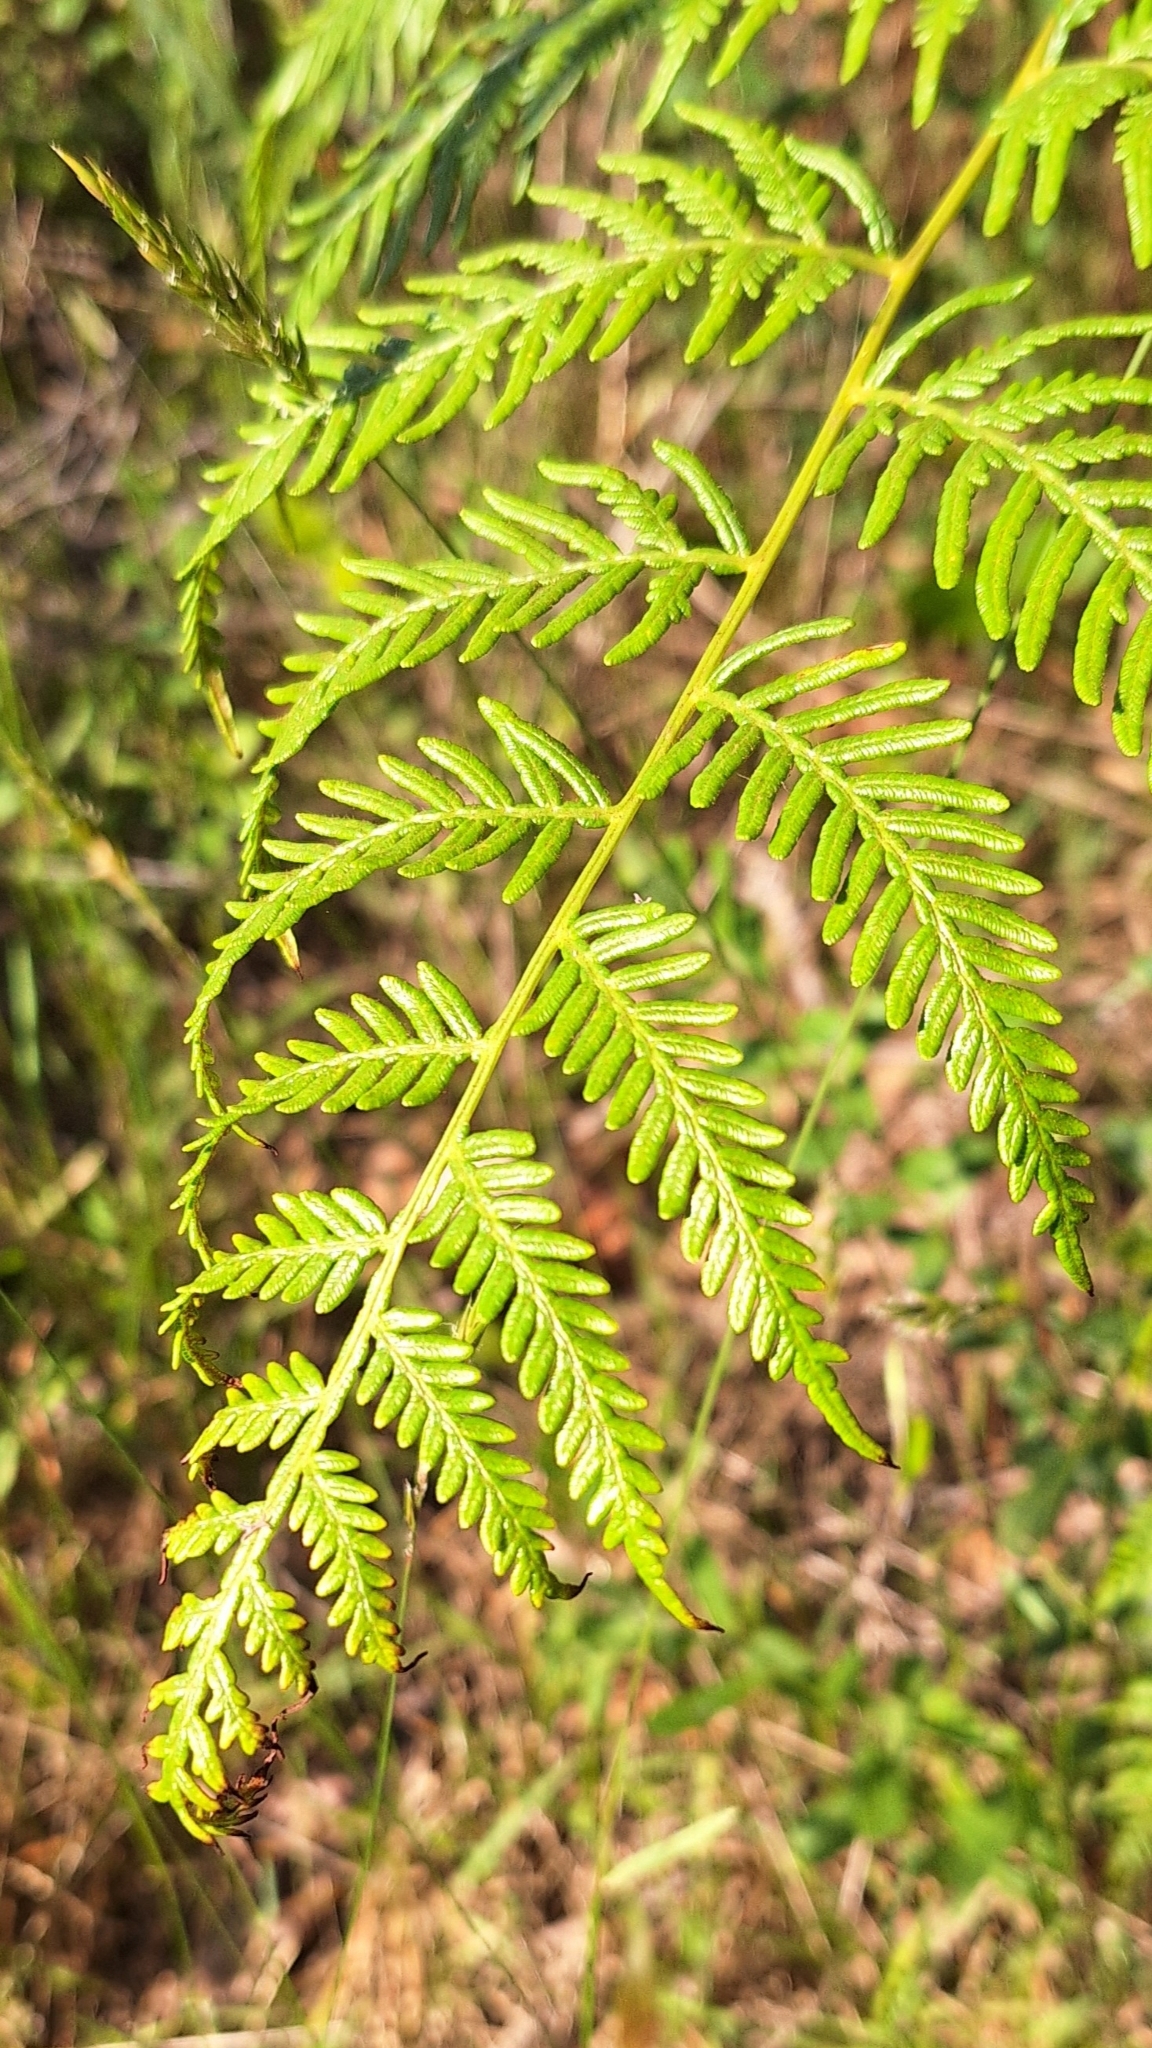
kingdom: Plantae
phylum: Tracheophyta
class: Polypodiopsida
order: Polypodiales
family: Dennstaedtiaceae
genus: Pteridium
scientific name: Pteridium esculentum
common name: Bracken fern
